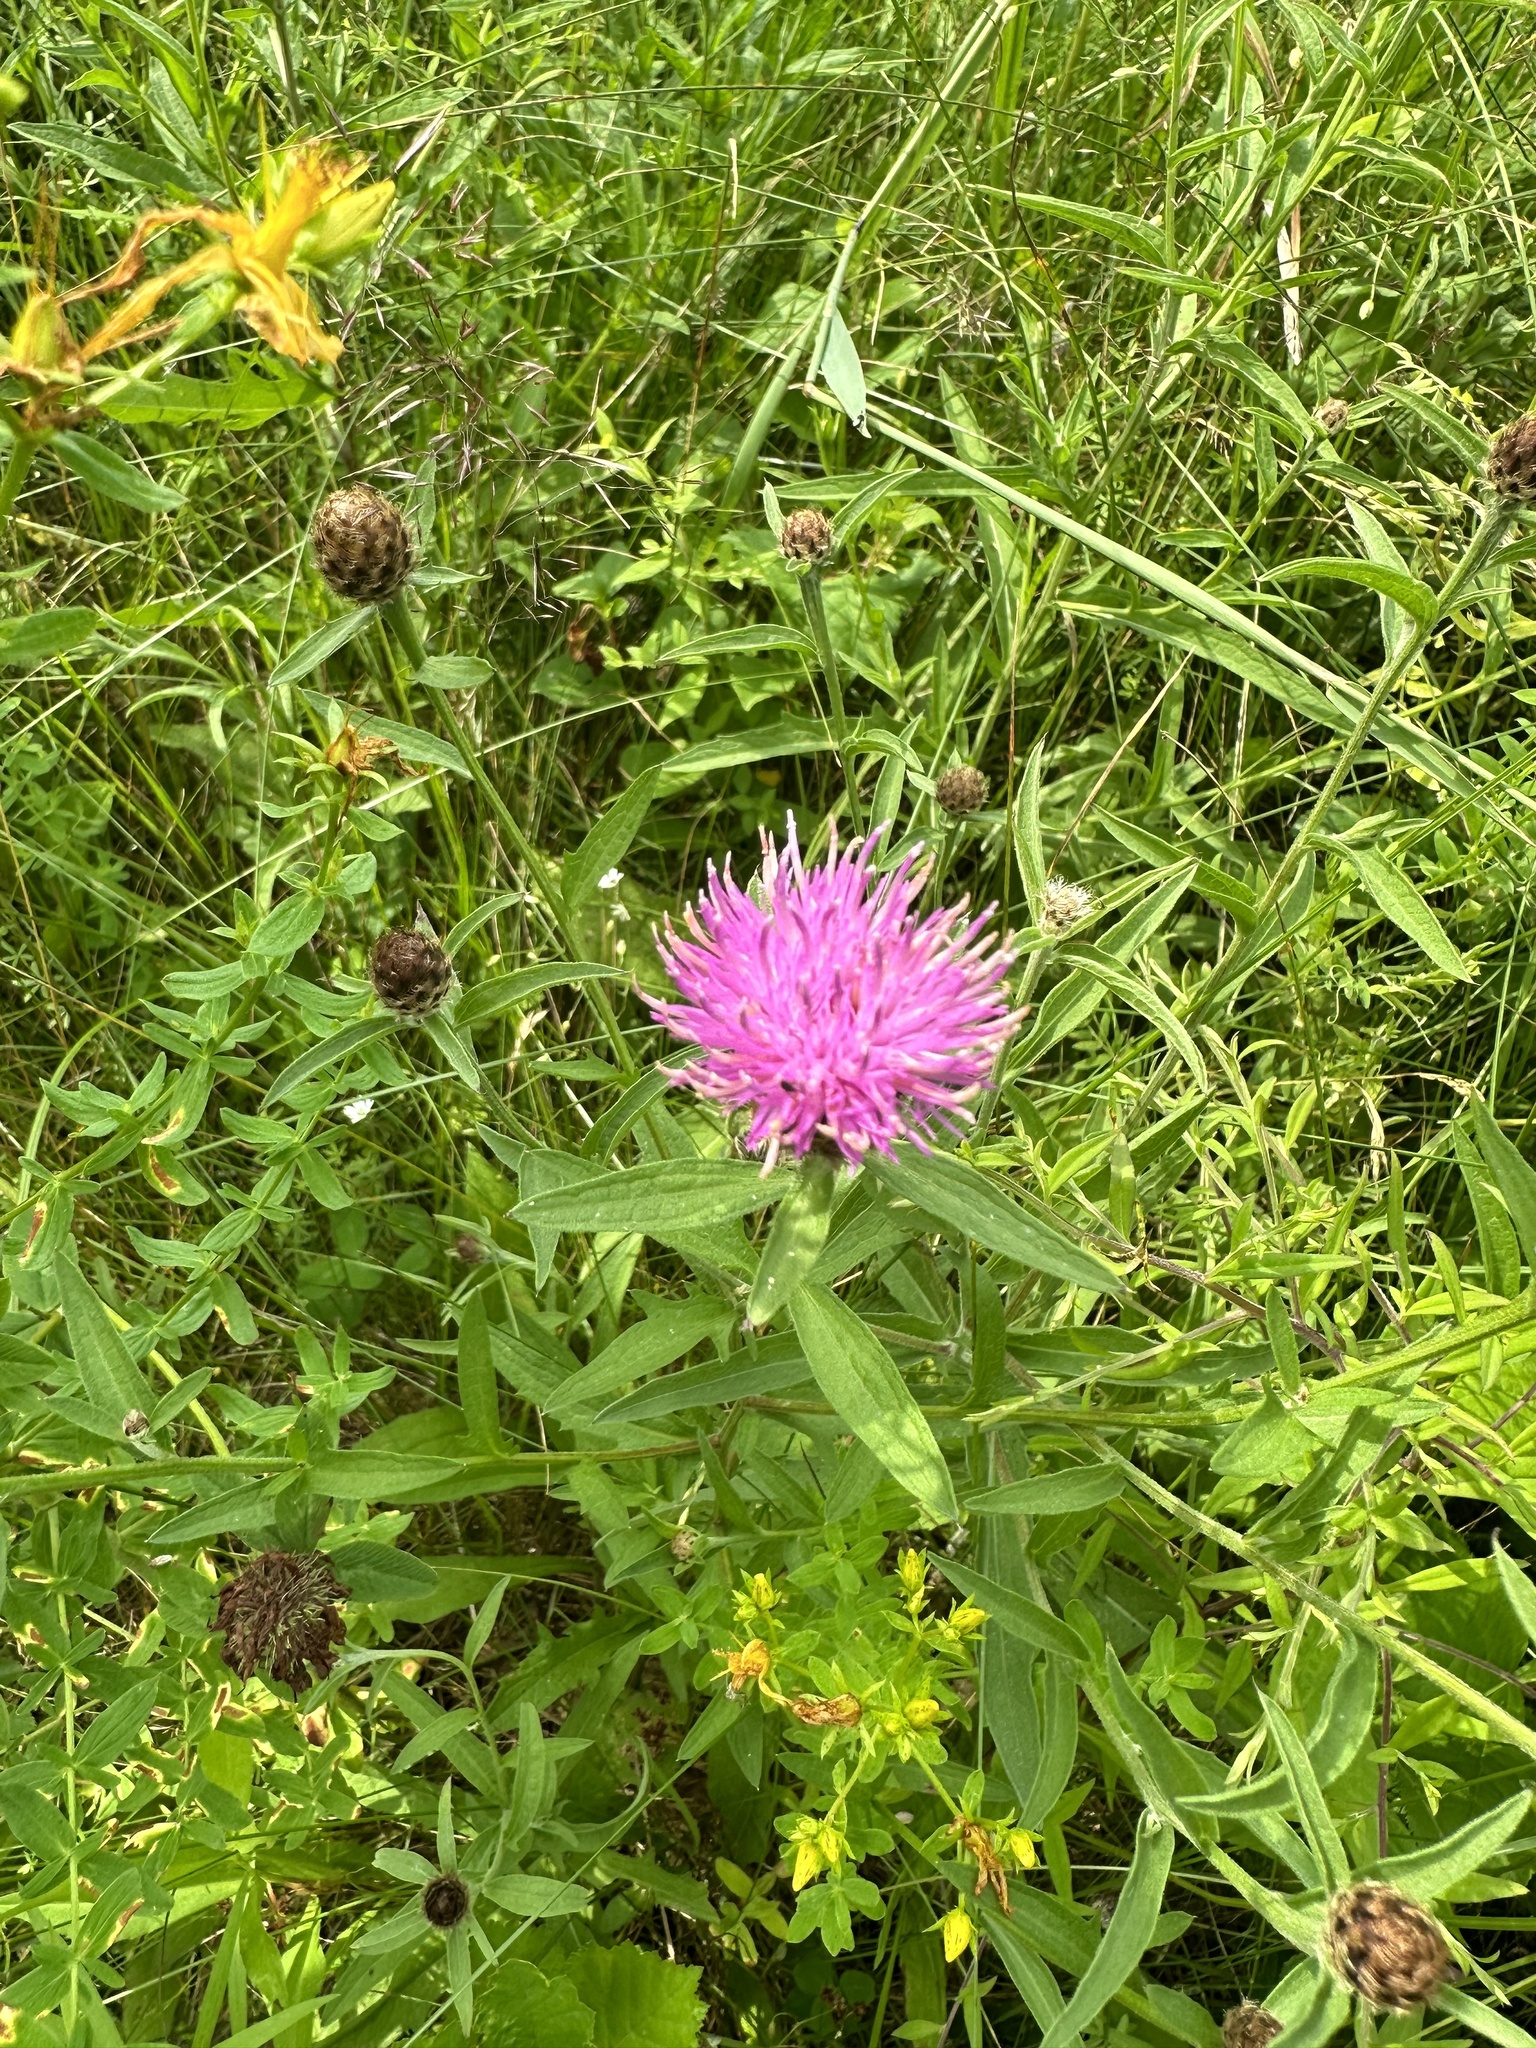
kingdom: Plantae
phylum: Tracheophyta
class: Magnoliopsida
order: Asterales
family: Asteraceae
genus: Centaurea
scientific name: Centaurea nigra
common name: Lesser knapweed
